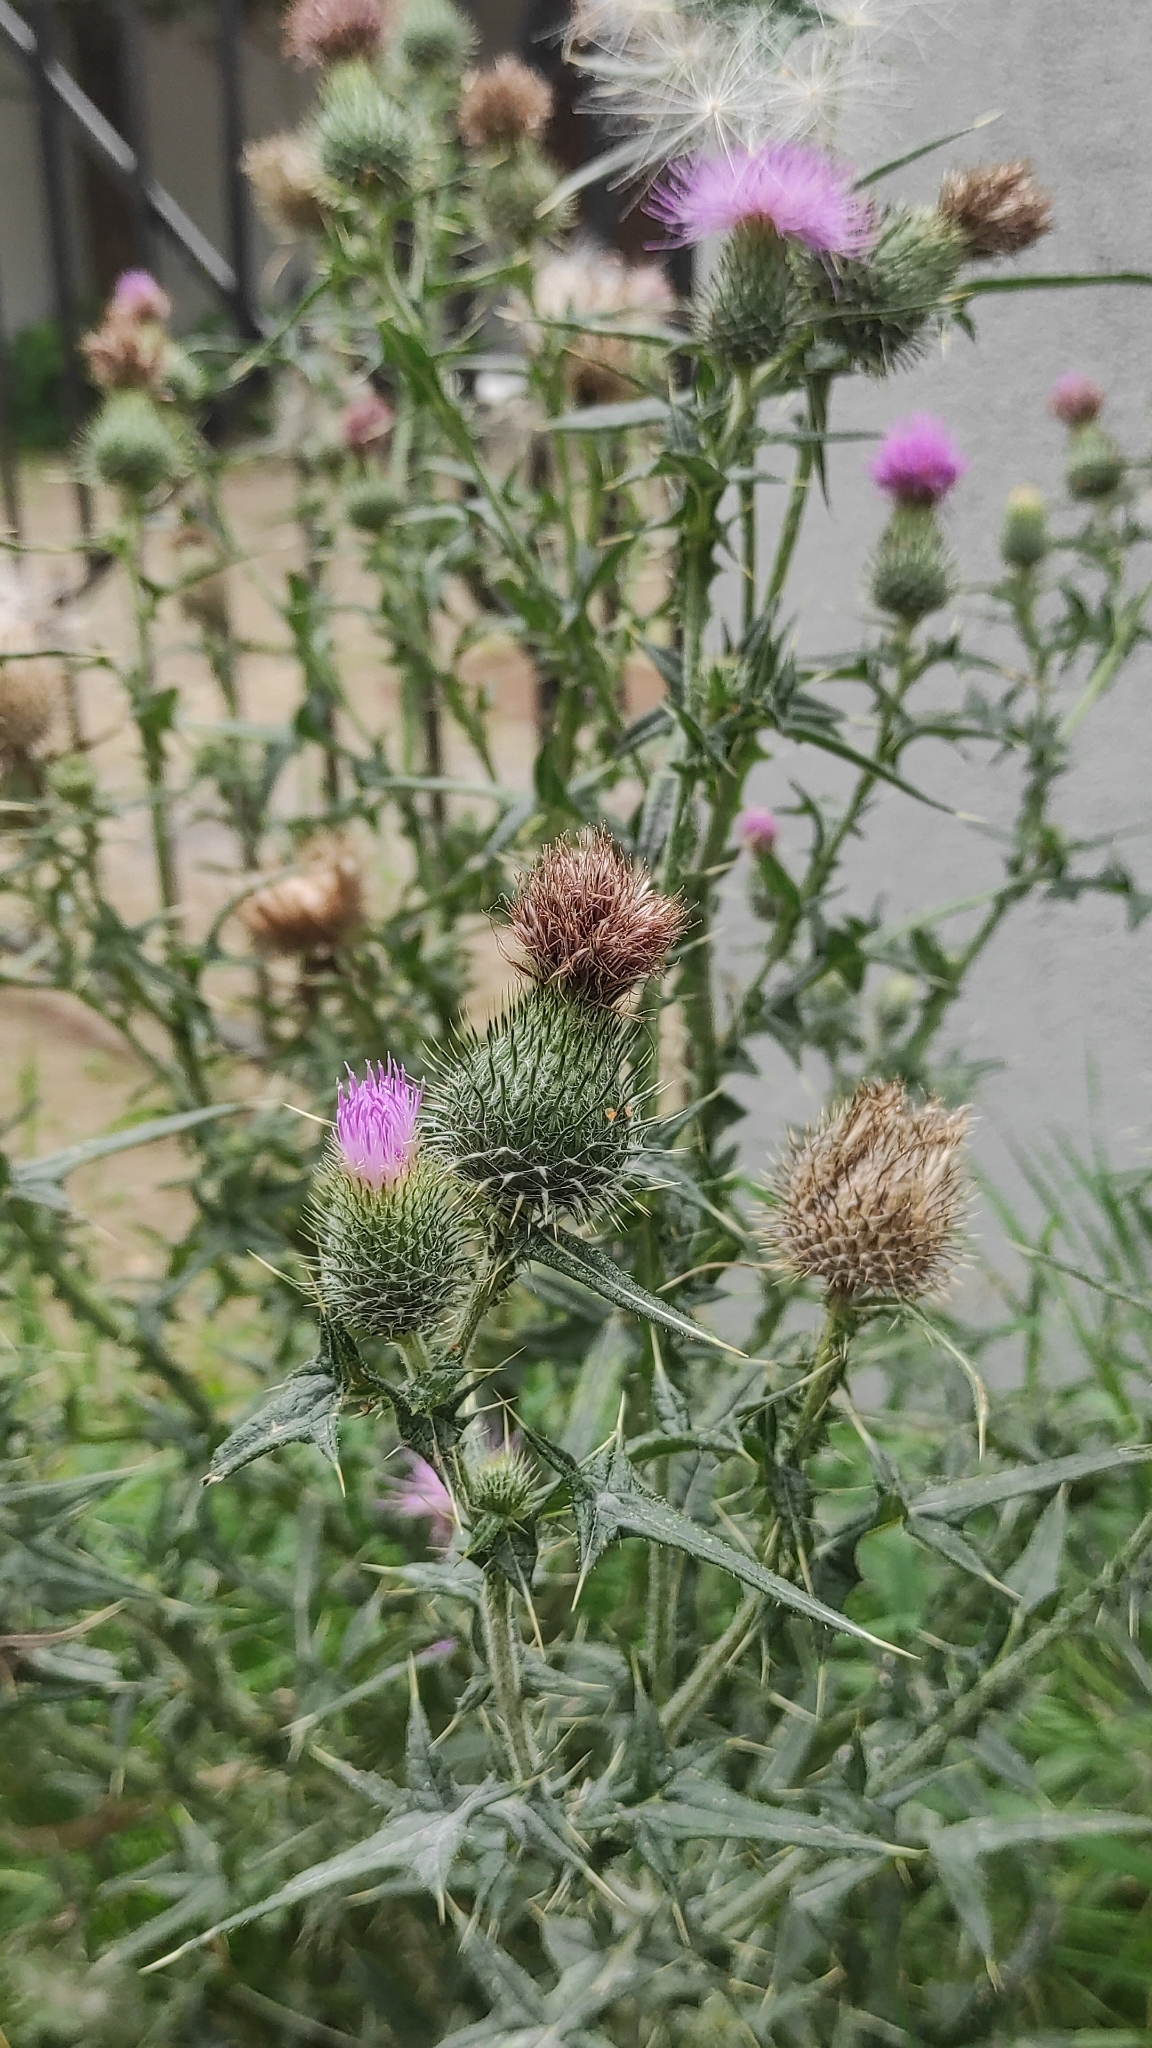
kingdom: Plantae
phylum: Tracheophyta
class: Magnoliopsida
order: Asterales
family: Asteraceae
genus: Cirsium
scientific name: Cirsium vulgare
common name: Bull thistle
